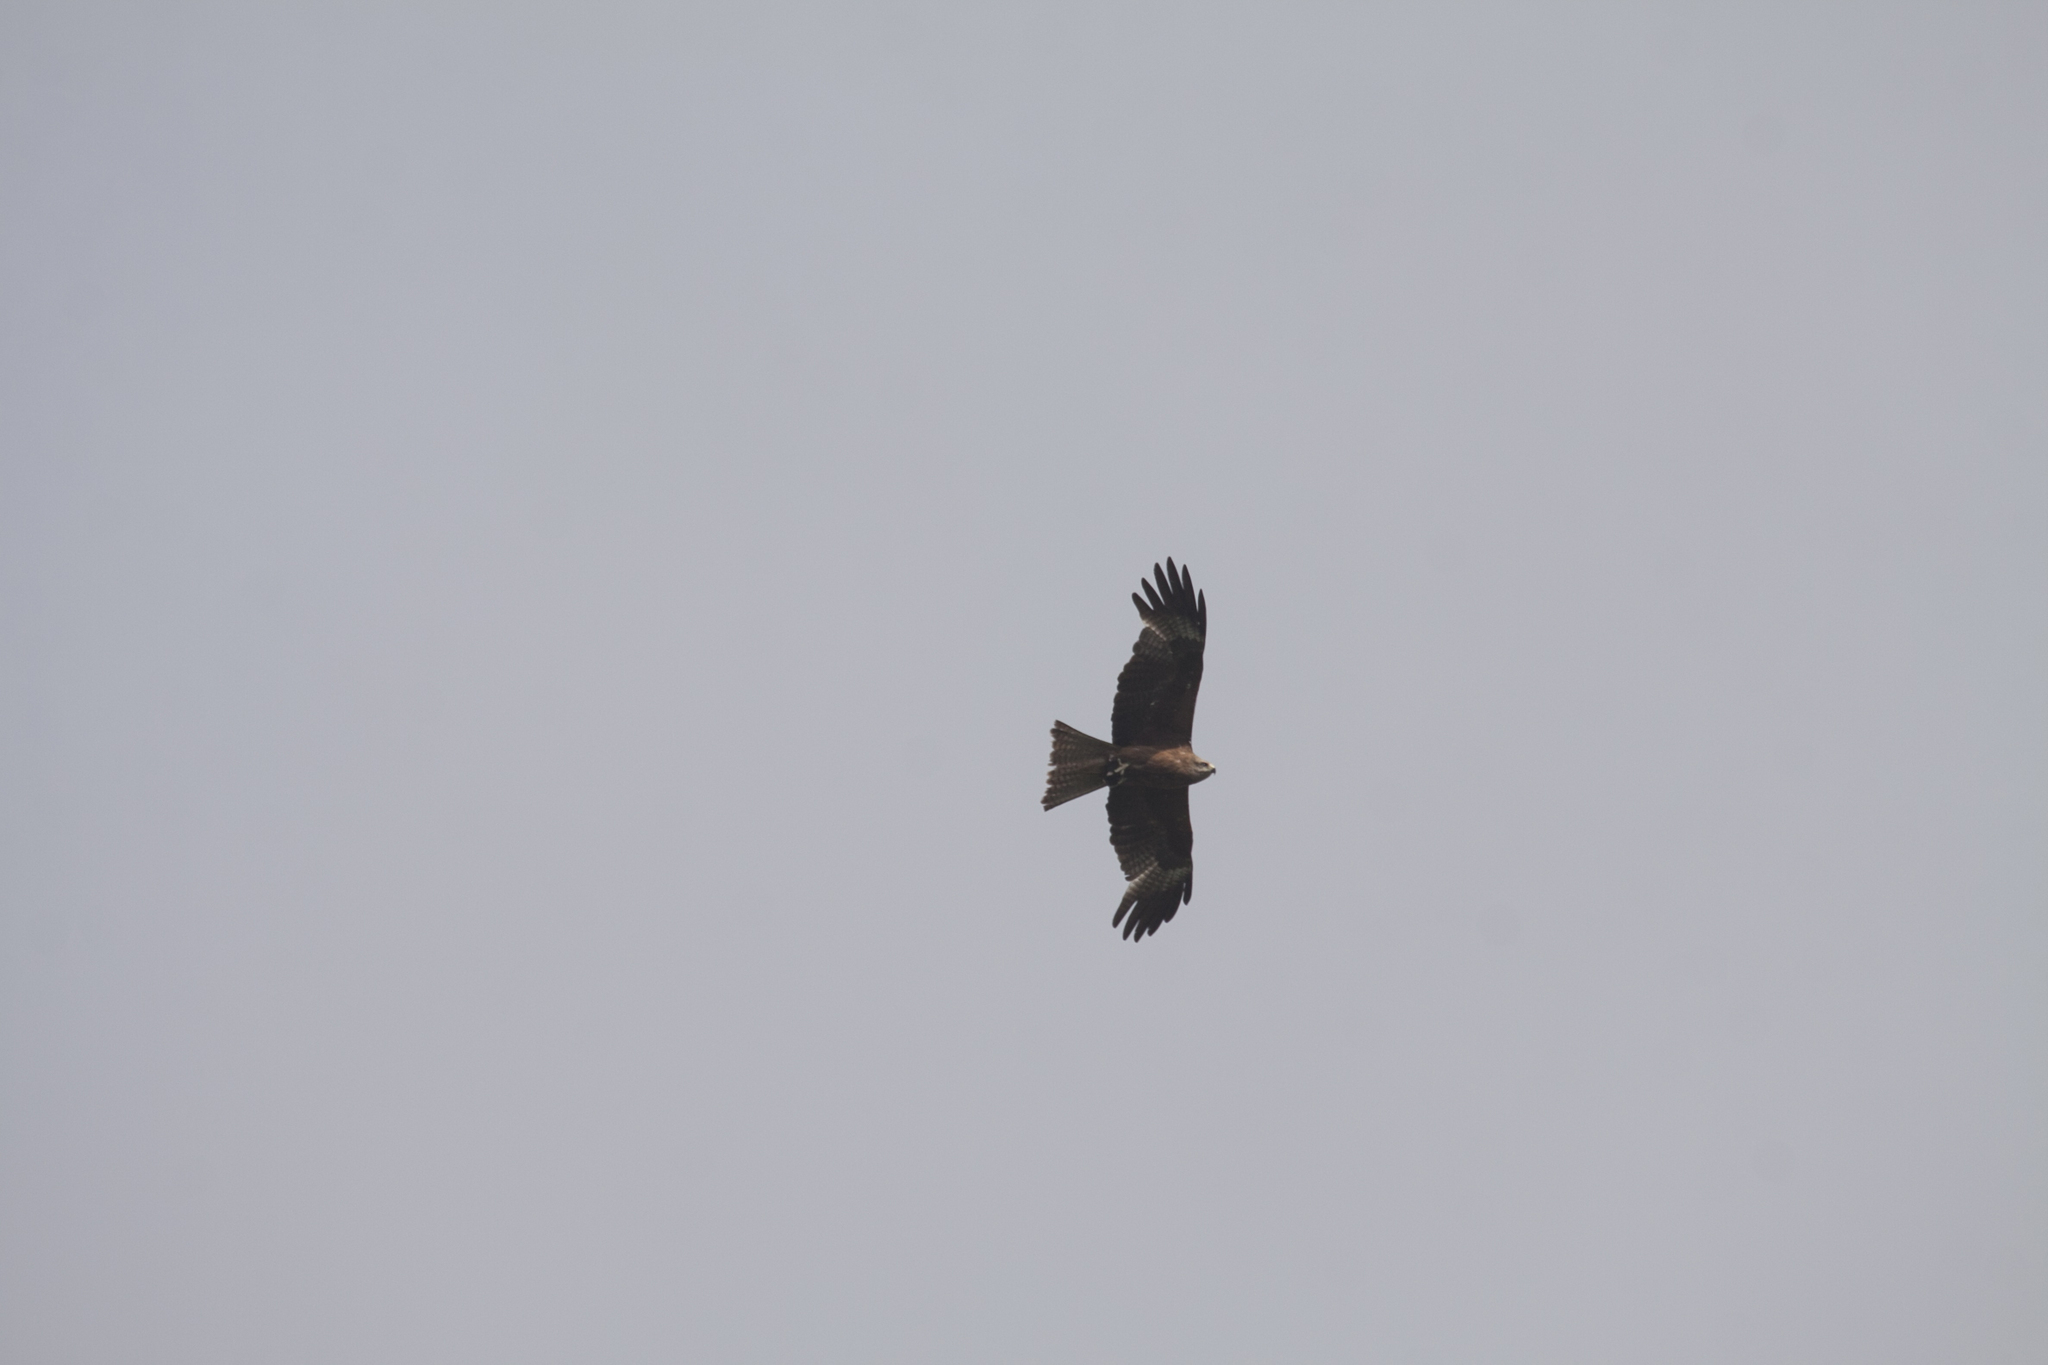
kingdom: Animalia
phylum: Chordata
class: Aves
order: Accipitriformes
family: Accipitridae
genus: Milvus
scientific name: Milvus migrans
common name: Black kite
